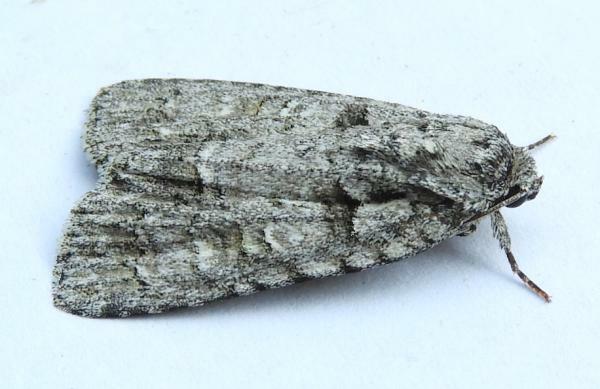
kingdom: Animalia
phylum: Arthropoda
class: Insecta
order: Lepidoptera
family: Noctuidae
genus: Acronicta
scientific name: Acronicta modica
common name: Hesitant dagger
